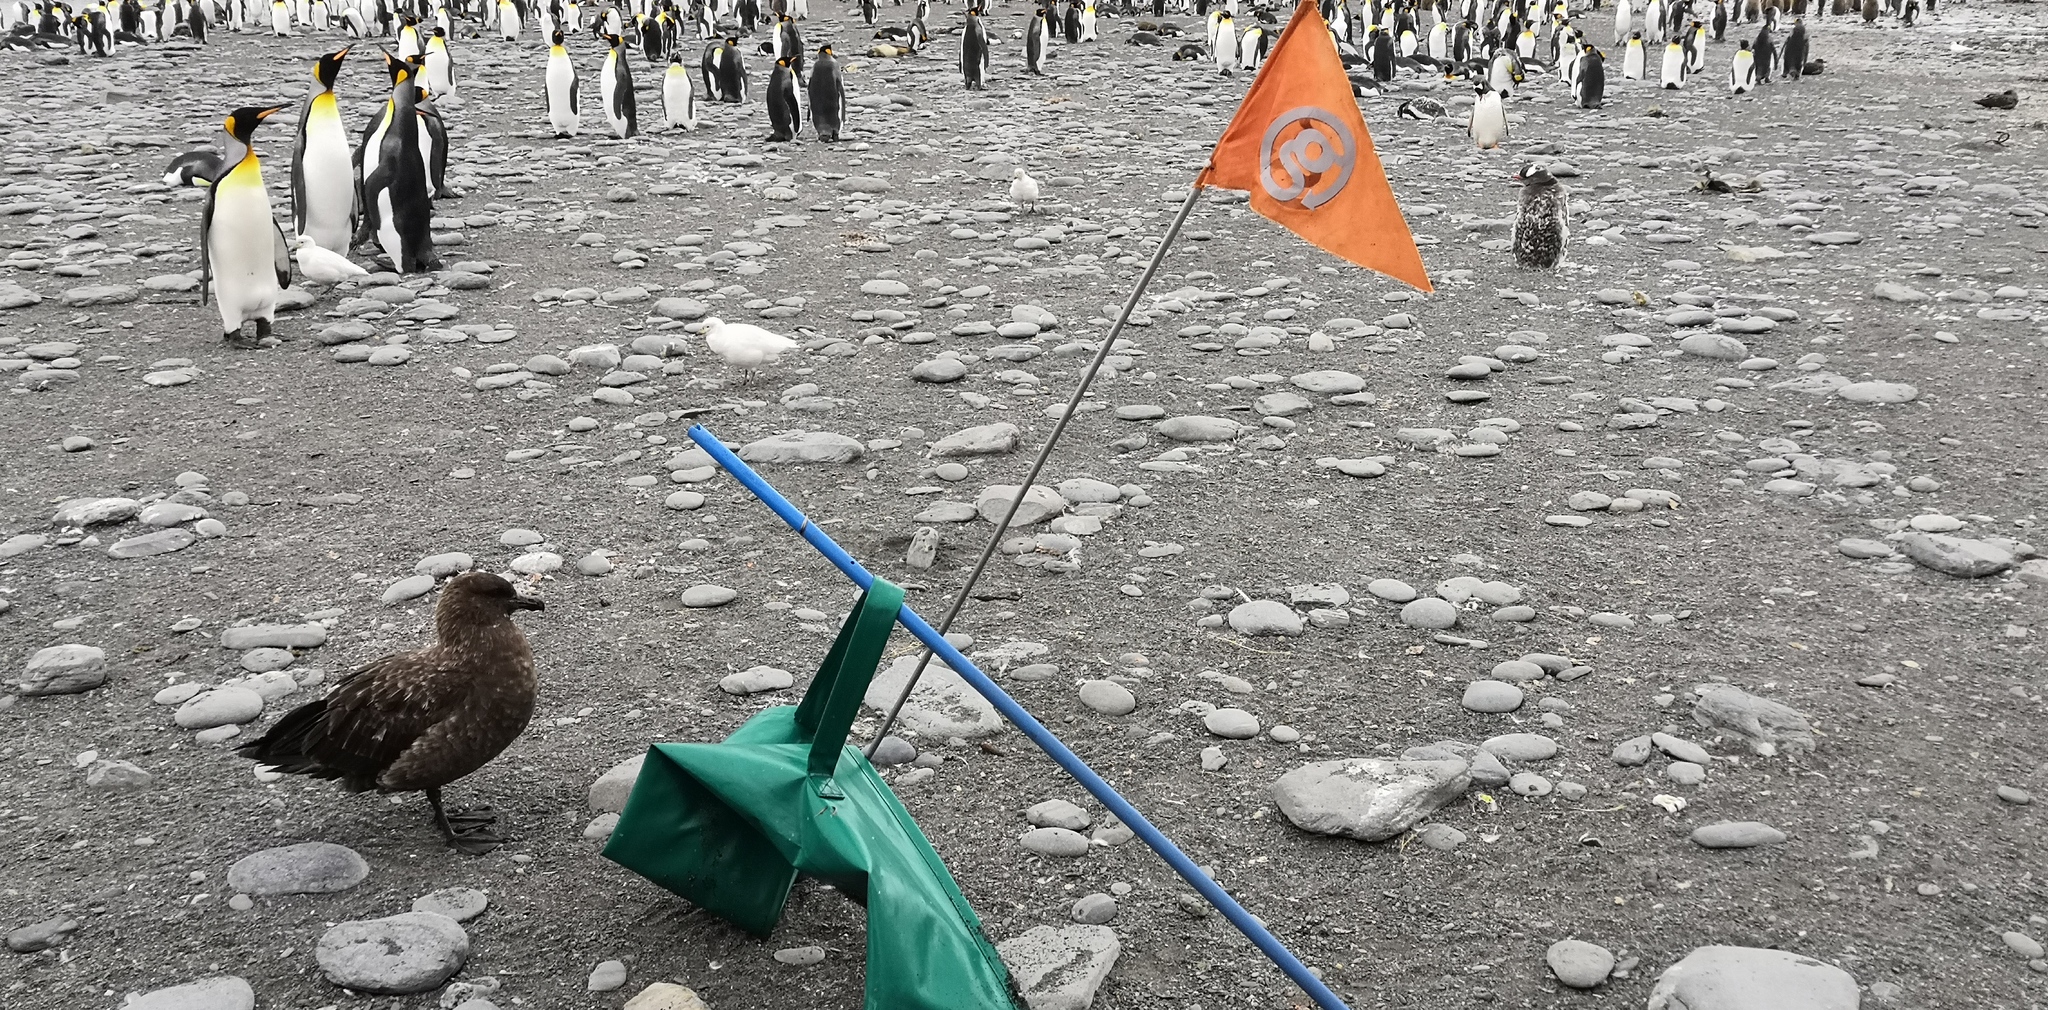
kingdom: Animalia
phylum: Chordata
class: Aves
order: Charadriiformes
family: Stercorariidae
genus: Stercorarius
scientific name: Stercorarius antarcticus
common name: Brown skua
